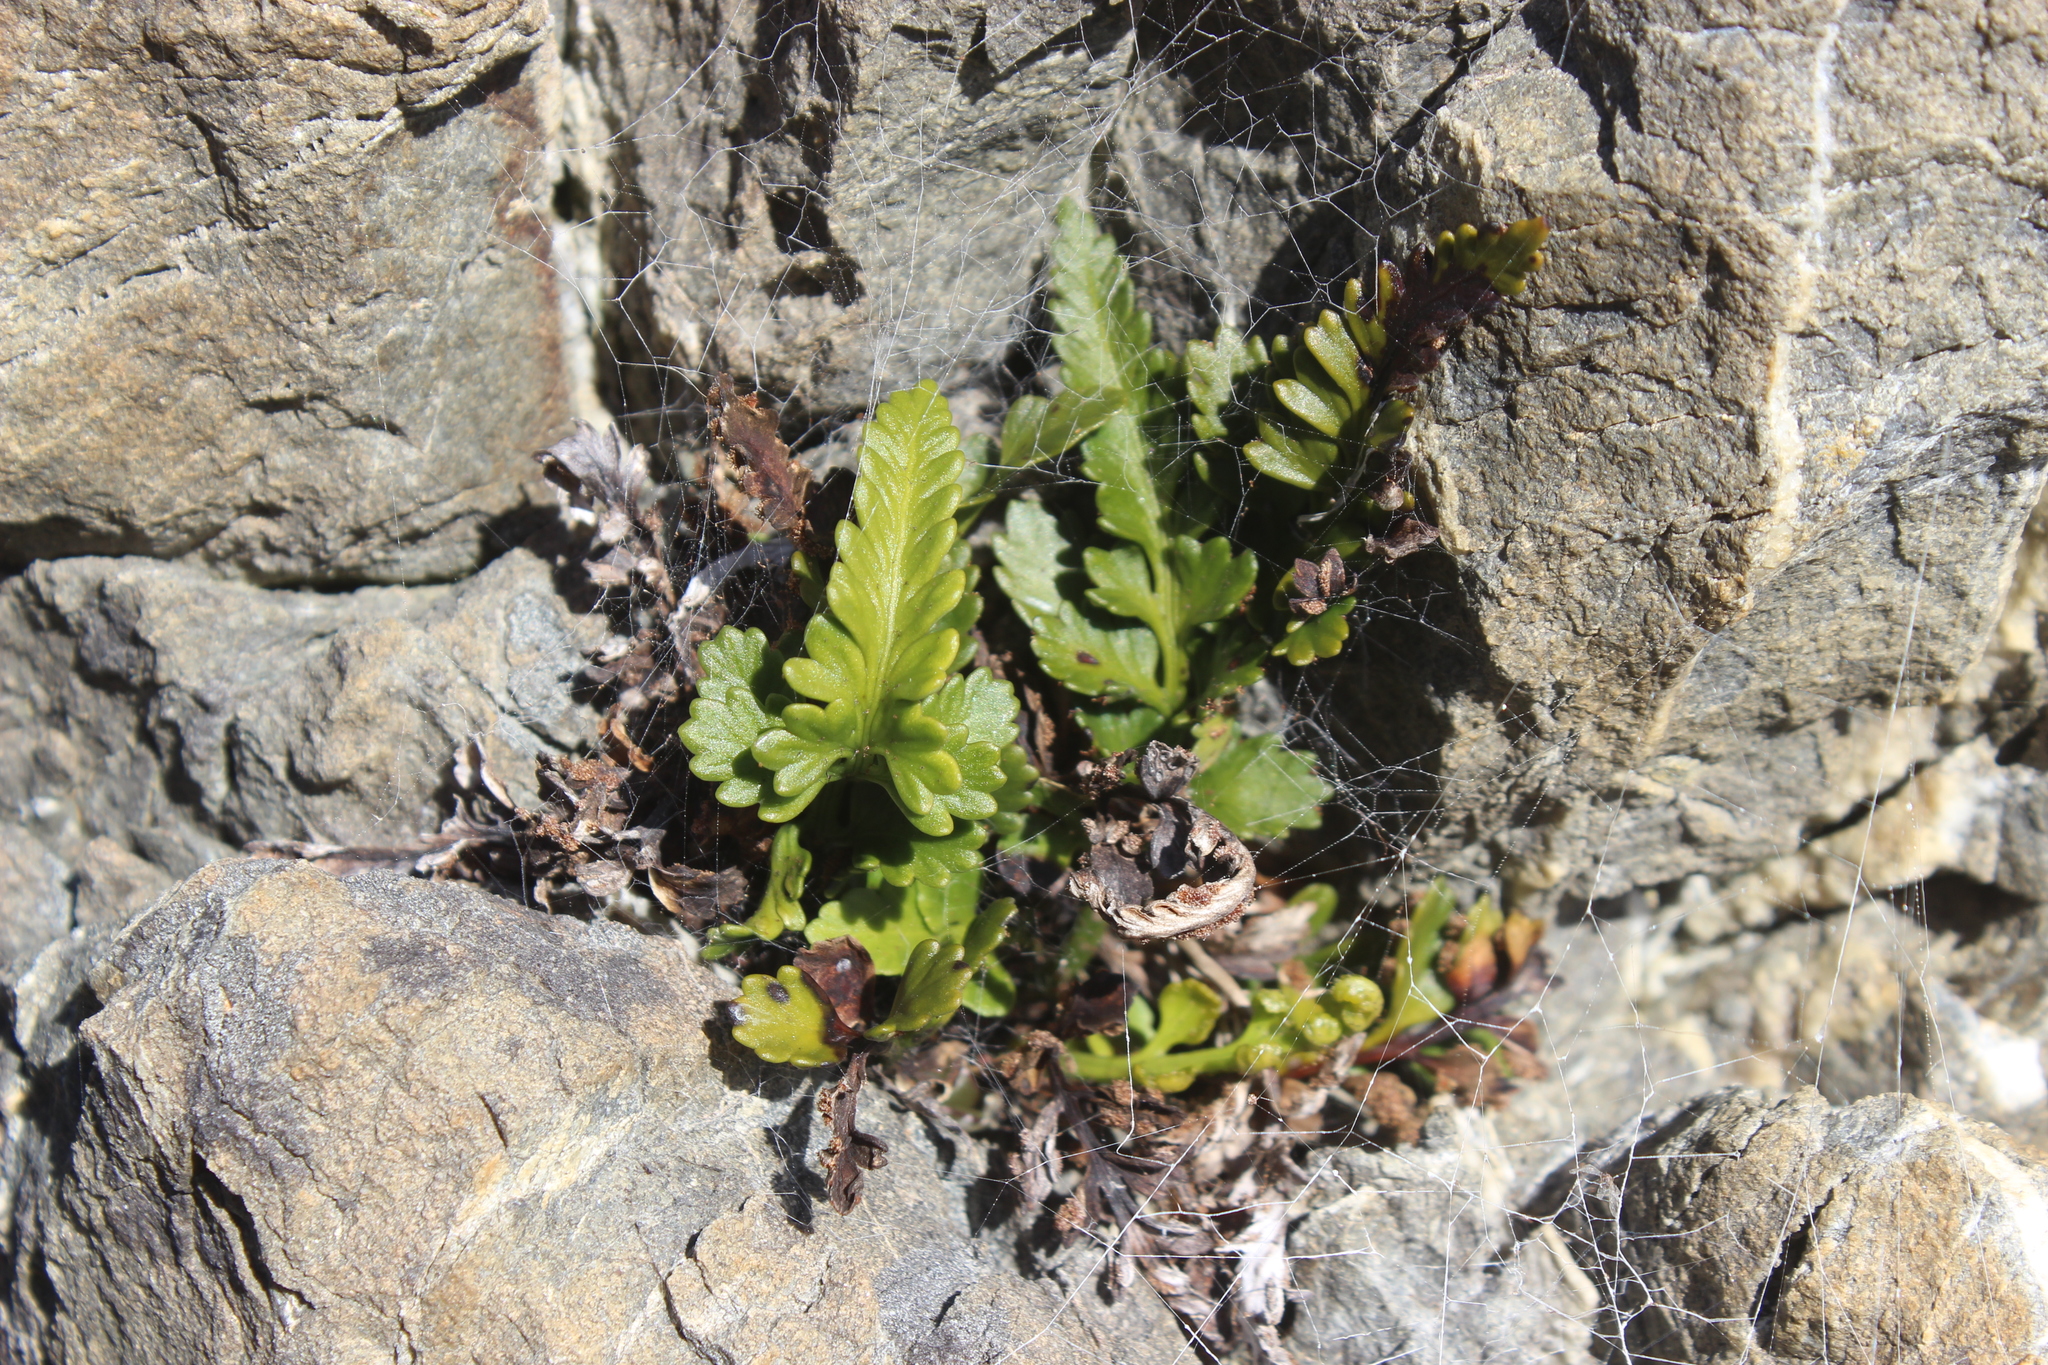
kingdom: Plantae
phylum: Tracheophyta
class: Polypodiopsida
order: Polypodiales
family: Aspleniaceae
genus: Asplenium
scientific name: Asplenium appendiculatum
